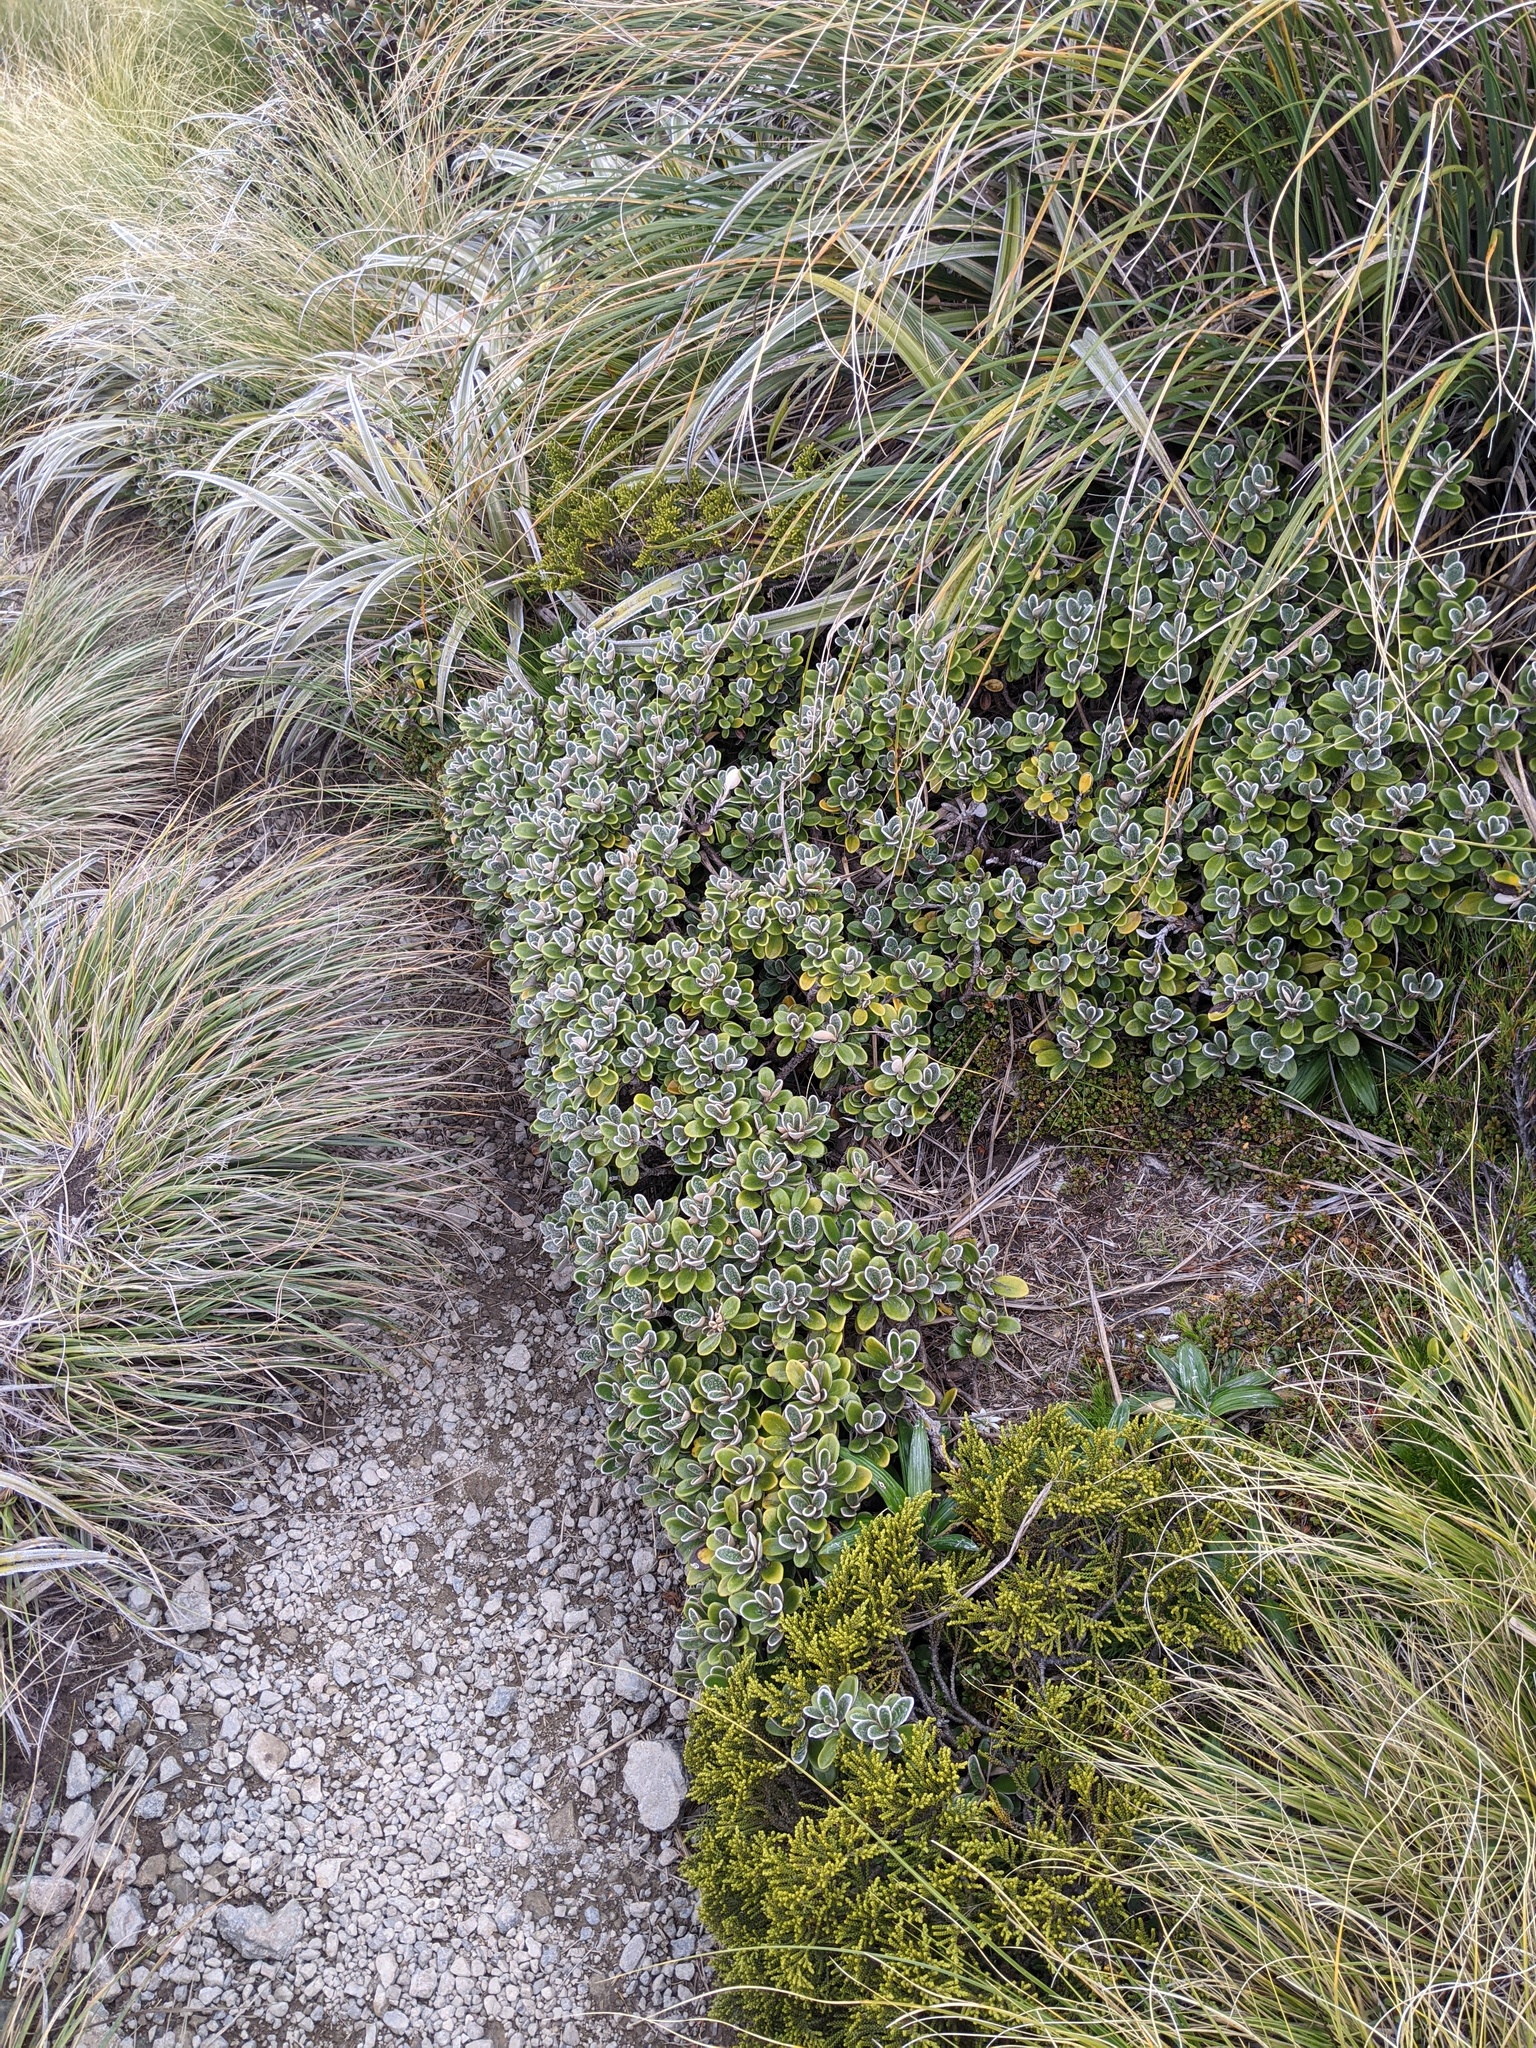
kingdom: Plantae
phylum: Tracheophyta
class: Magnoliopsida
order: Asterales
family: Asteraceae
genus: Brachyglottis
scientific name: Brachyglottis bidwillii
